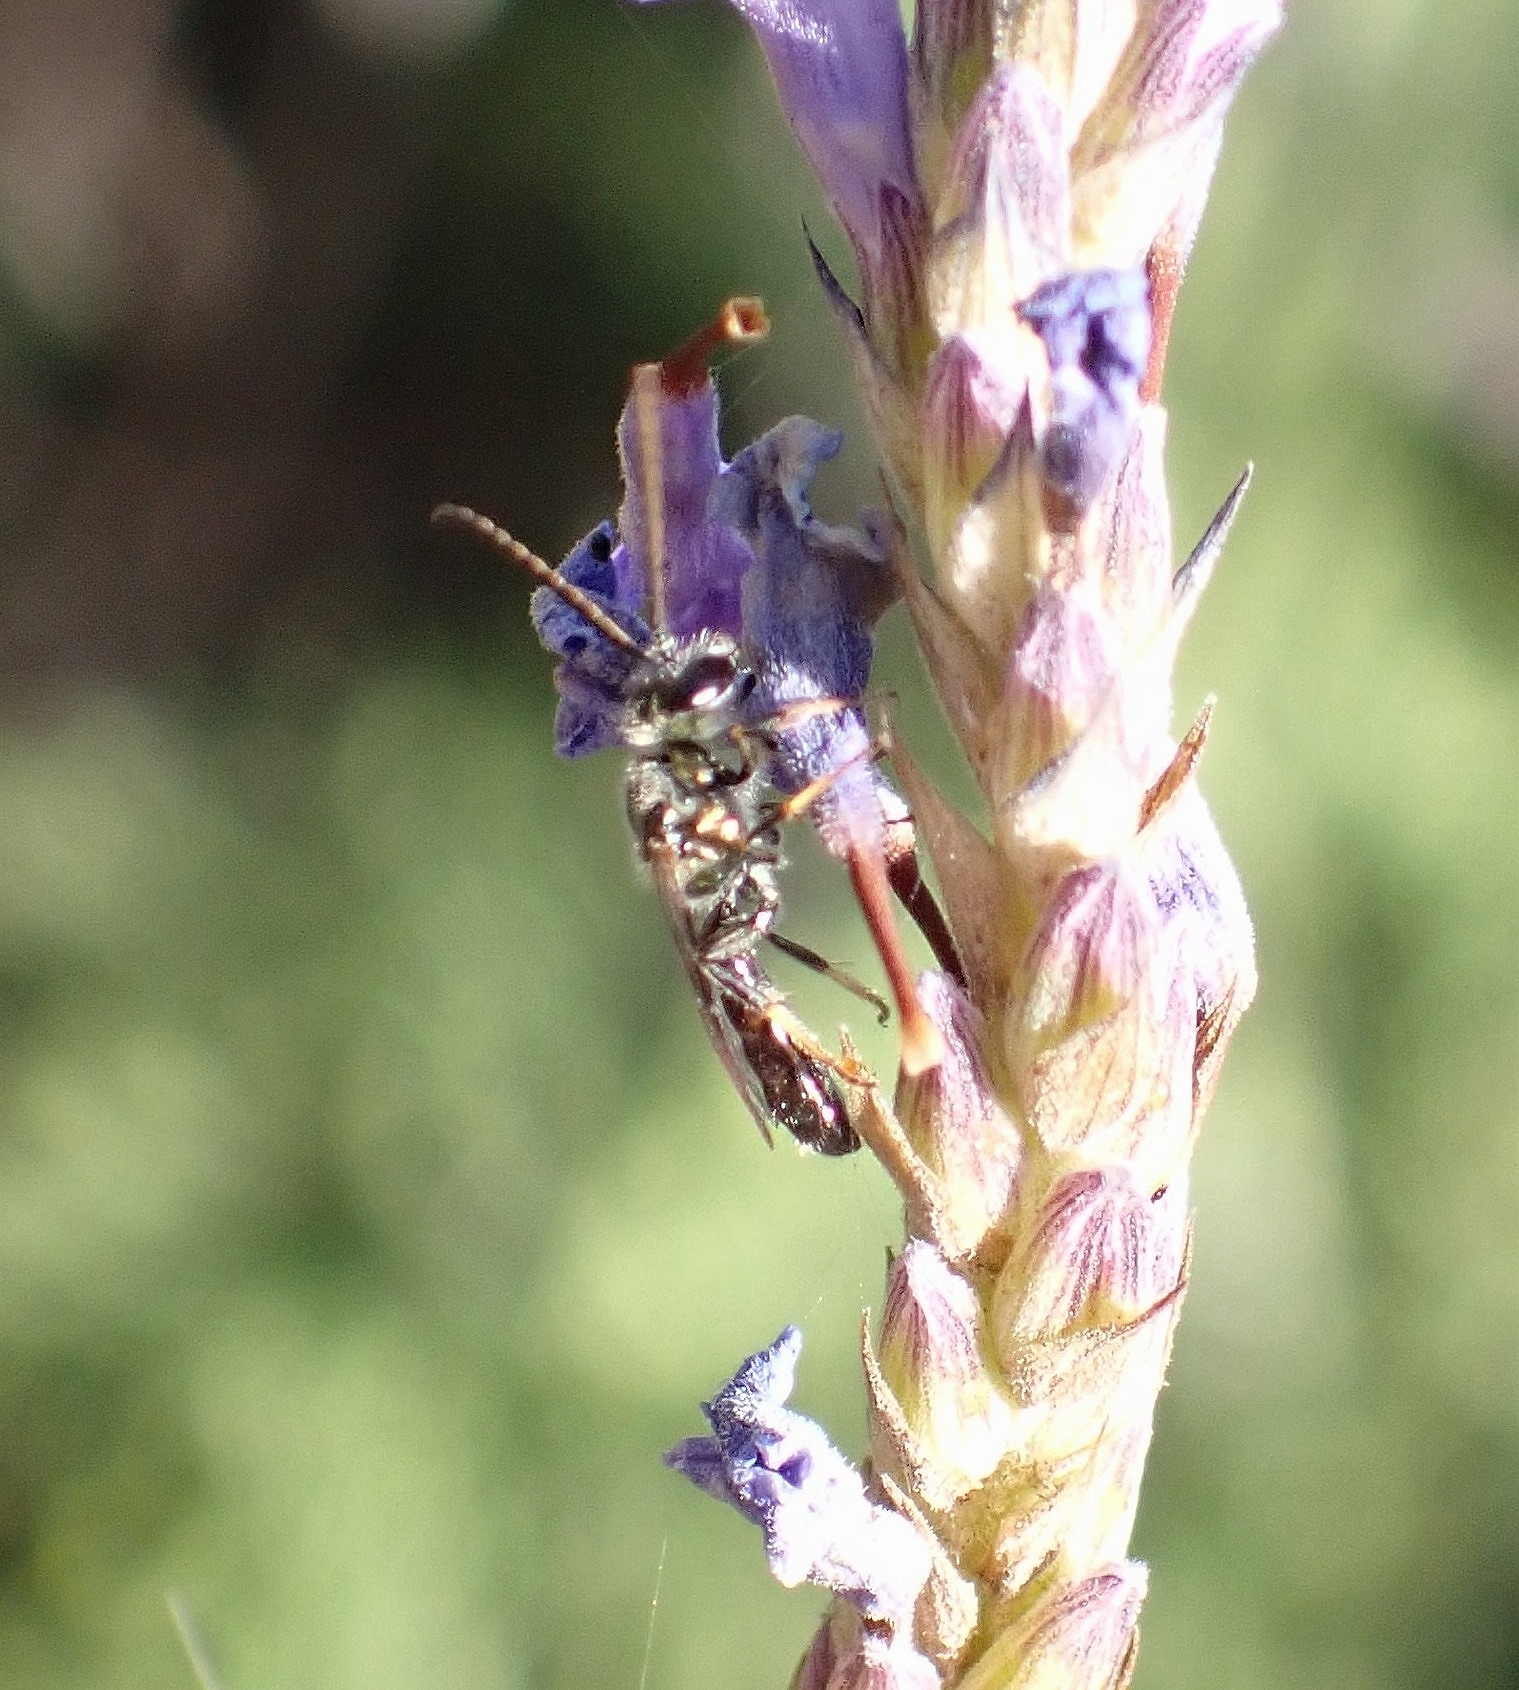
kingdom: Animalia
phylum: Arthropoda
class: Insecta
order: Hymenoptera
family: Halictidae
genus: Lasioglossum
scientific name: Lasioglossum loetum
